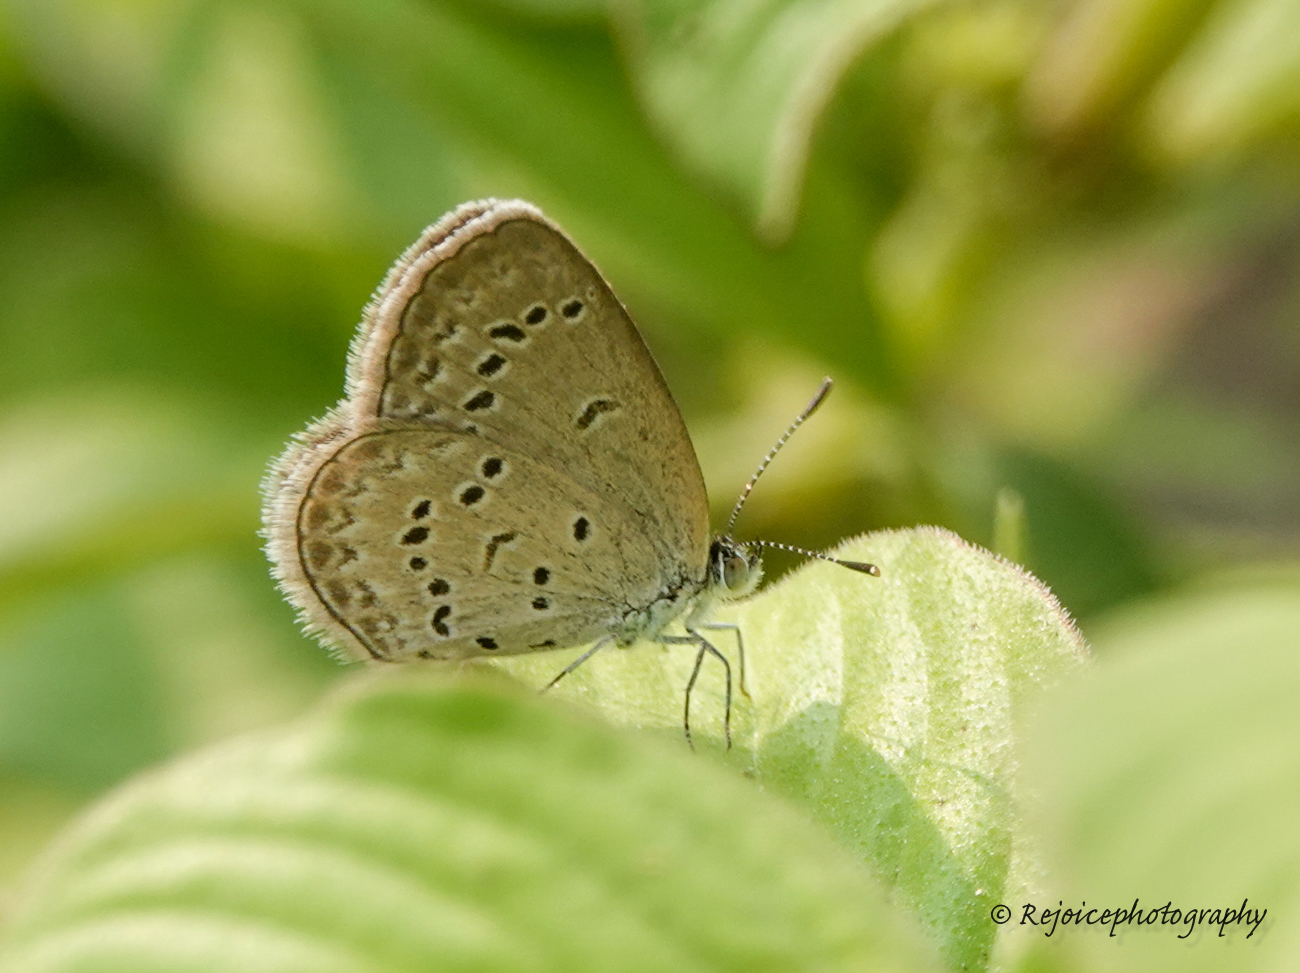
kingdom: Animalia
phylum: Arthropoda
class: Insecta
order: Lepidoptera
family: Lycaenidae
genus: Zizina
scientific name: Zizina otis
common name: Lesser grass blue
